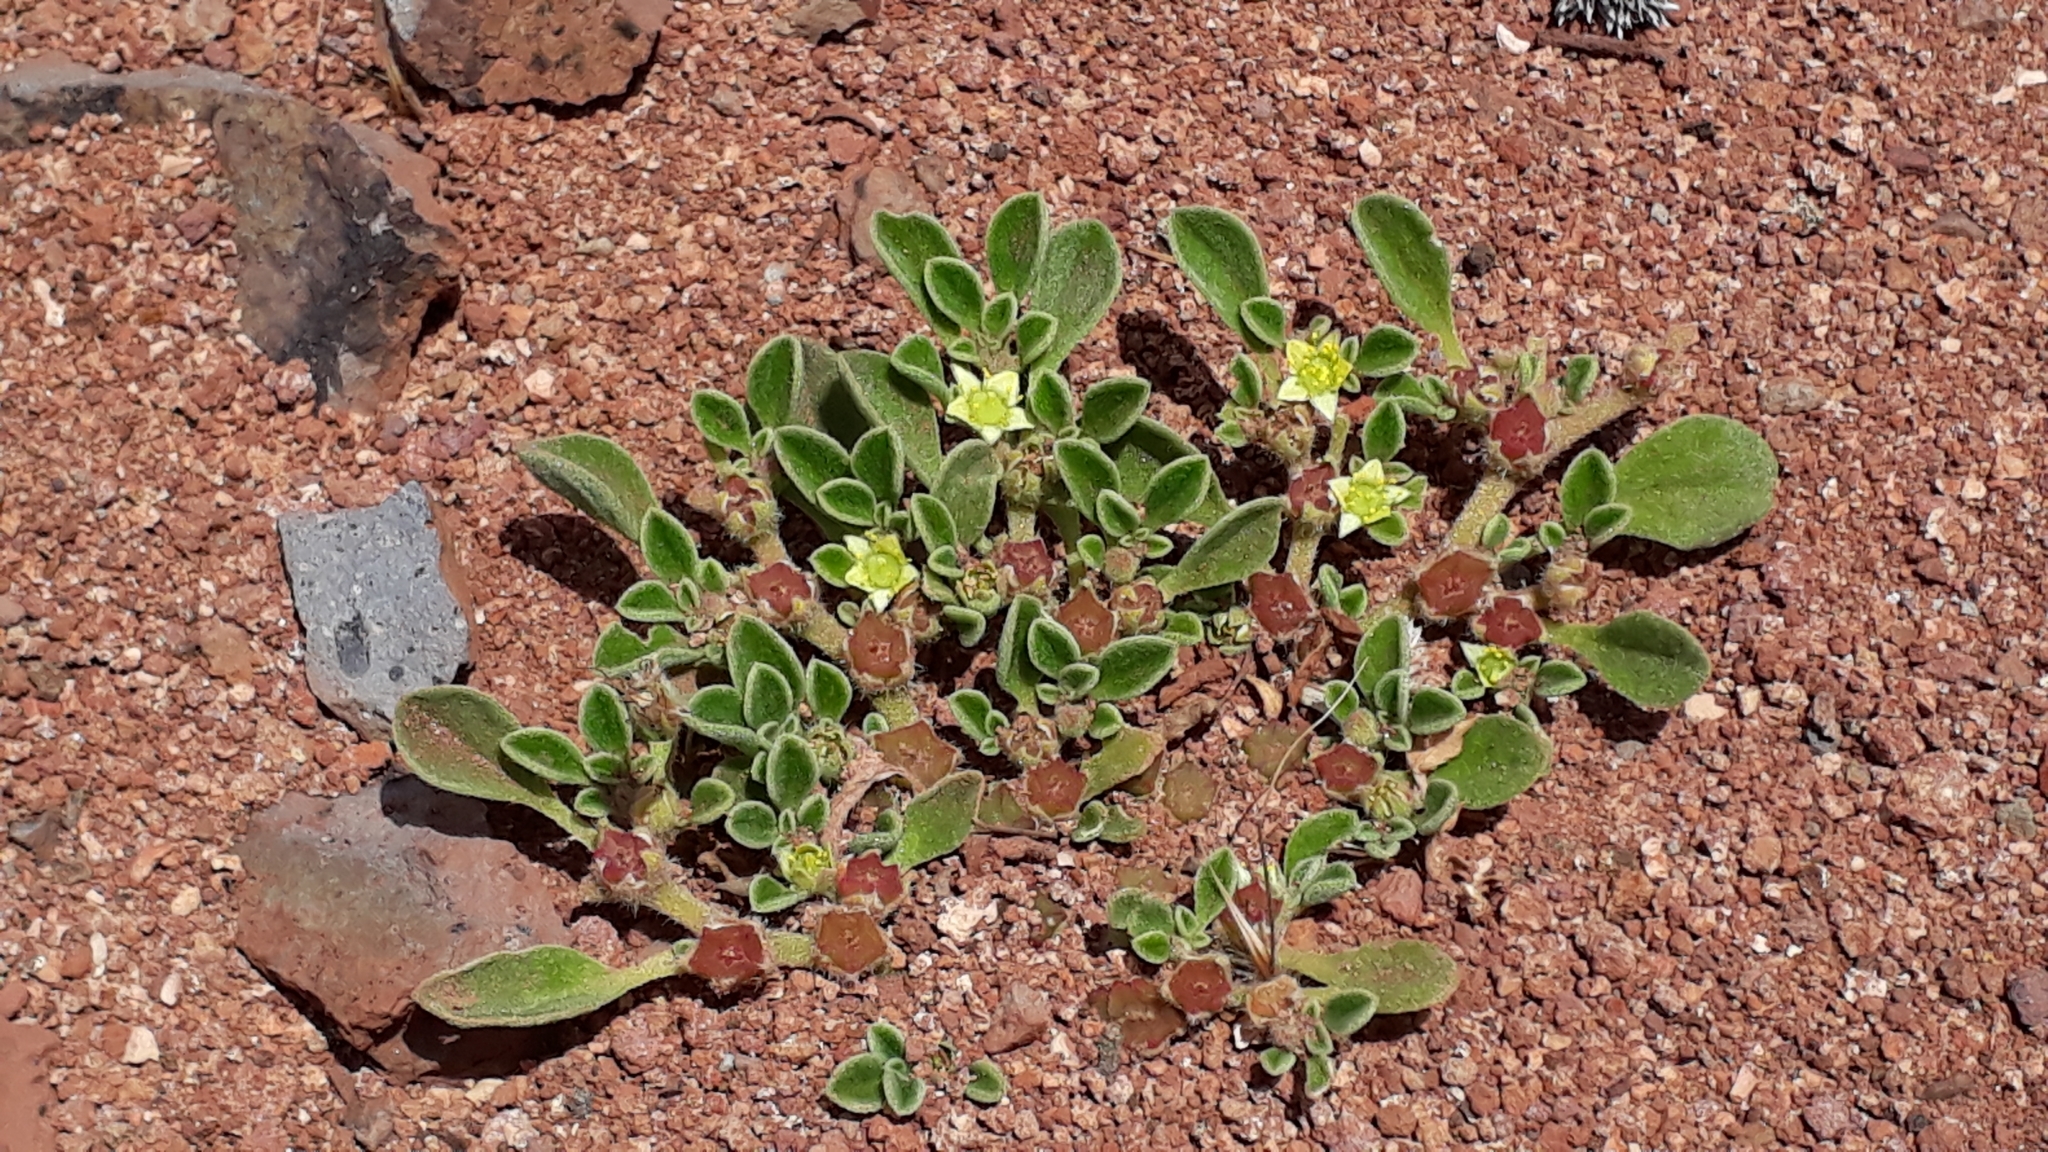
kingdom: Plantae
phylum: Tracheophyta
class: Magnoliopsida
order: Caryophyllales
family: Aizoaceae
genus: Aizoon
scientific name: Aizoon canariense
